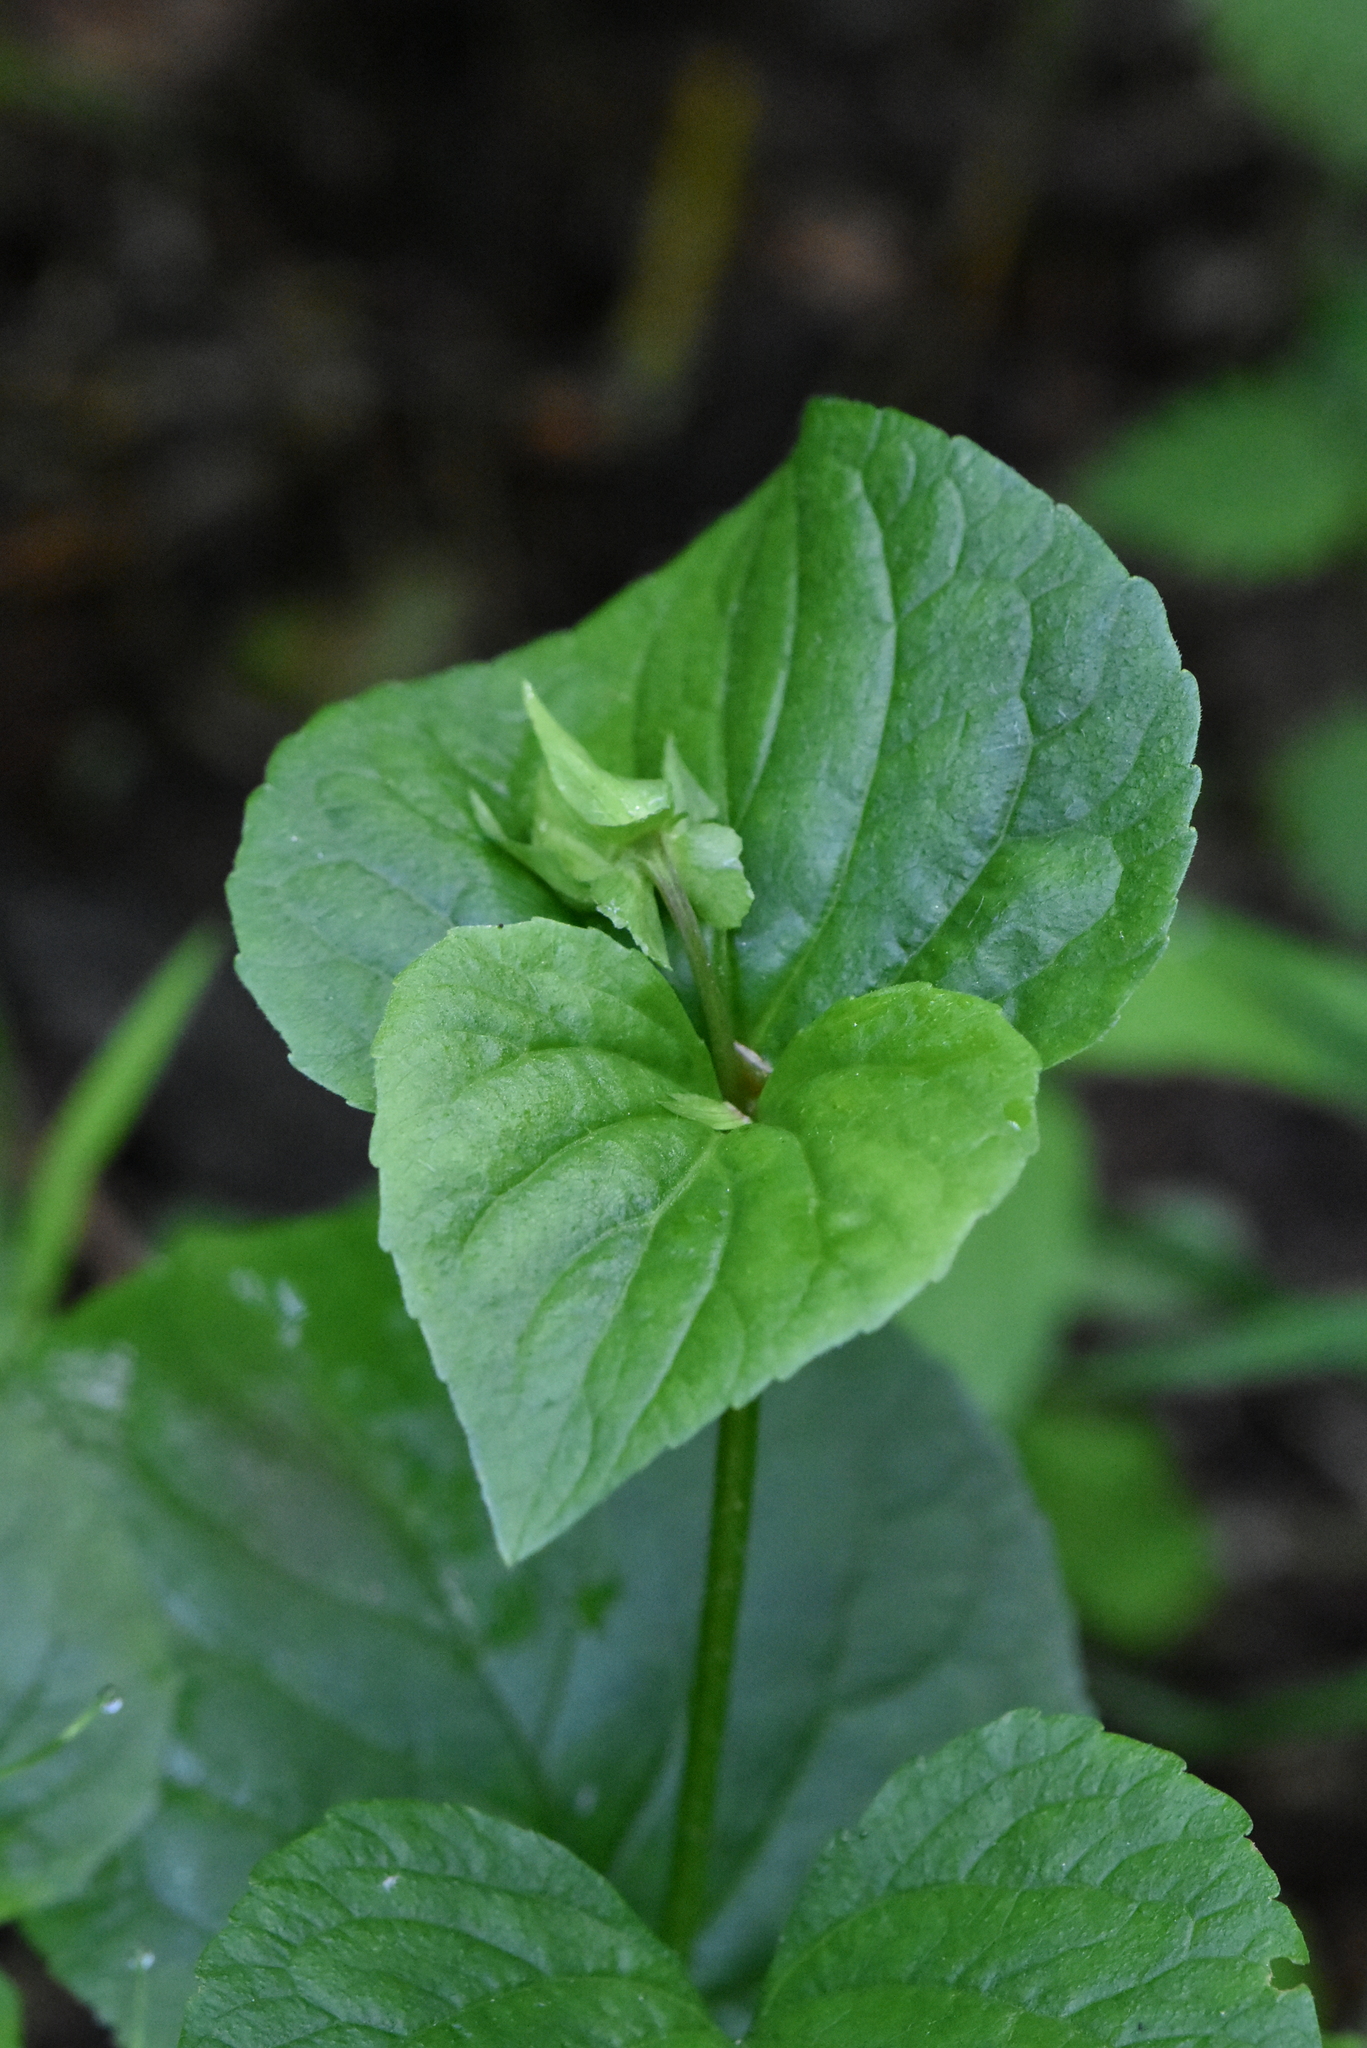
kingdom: Plantae
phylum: Tracheophyta
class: Magnoliopsida
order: Malpighiales
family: Violaceae
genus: Viola
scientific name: Viola mirabilis
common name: Wonder violet
